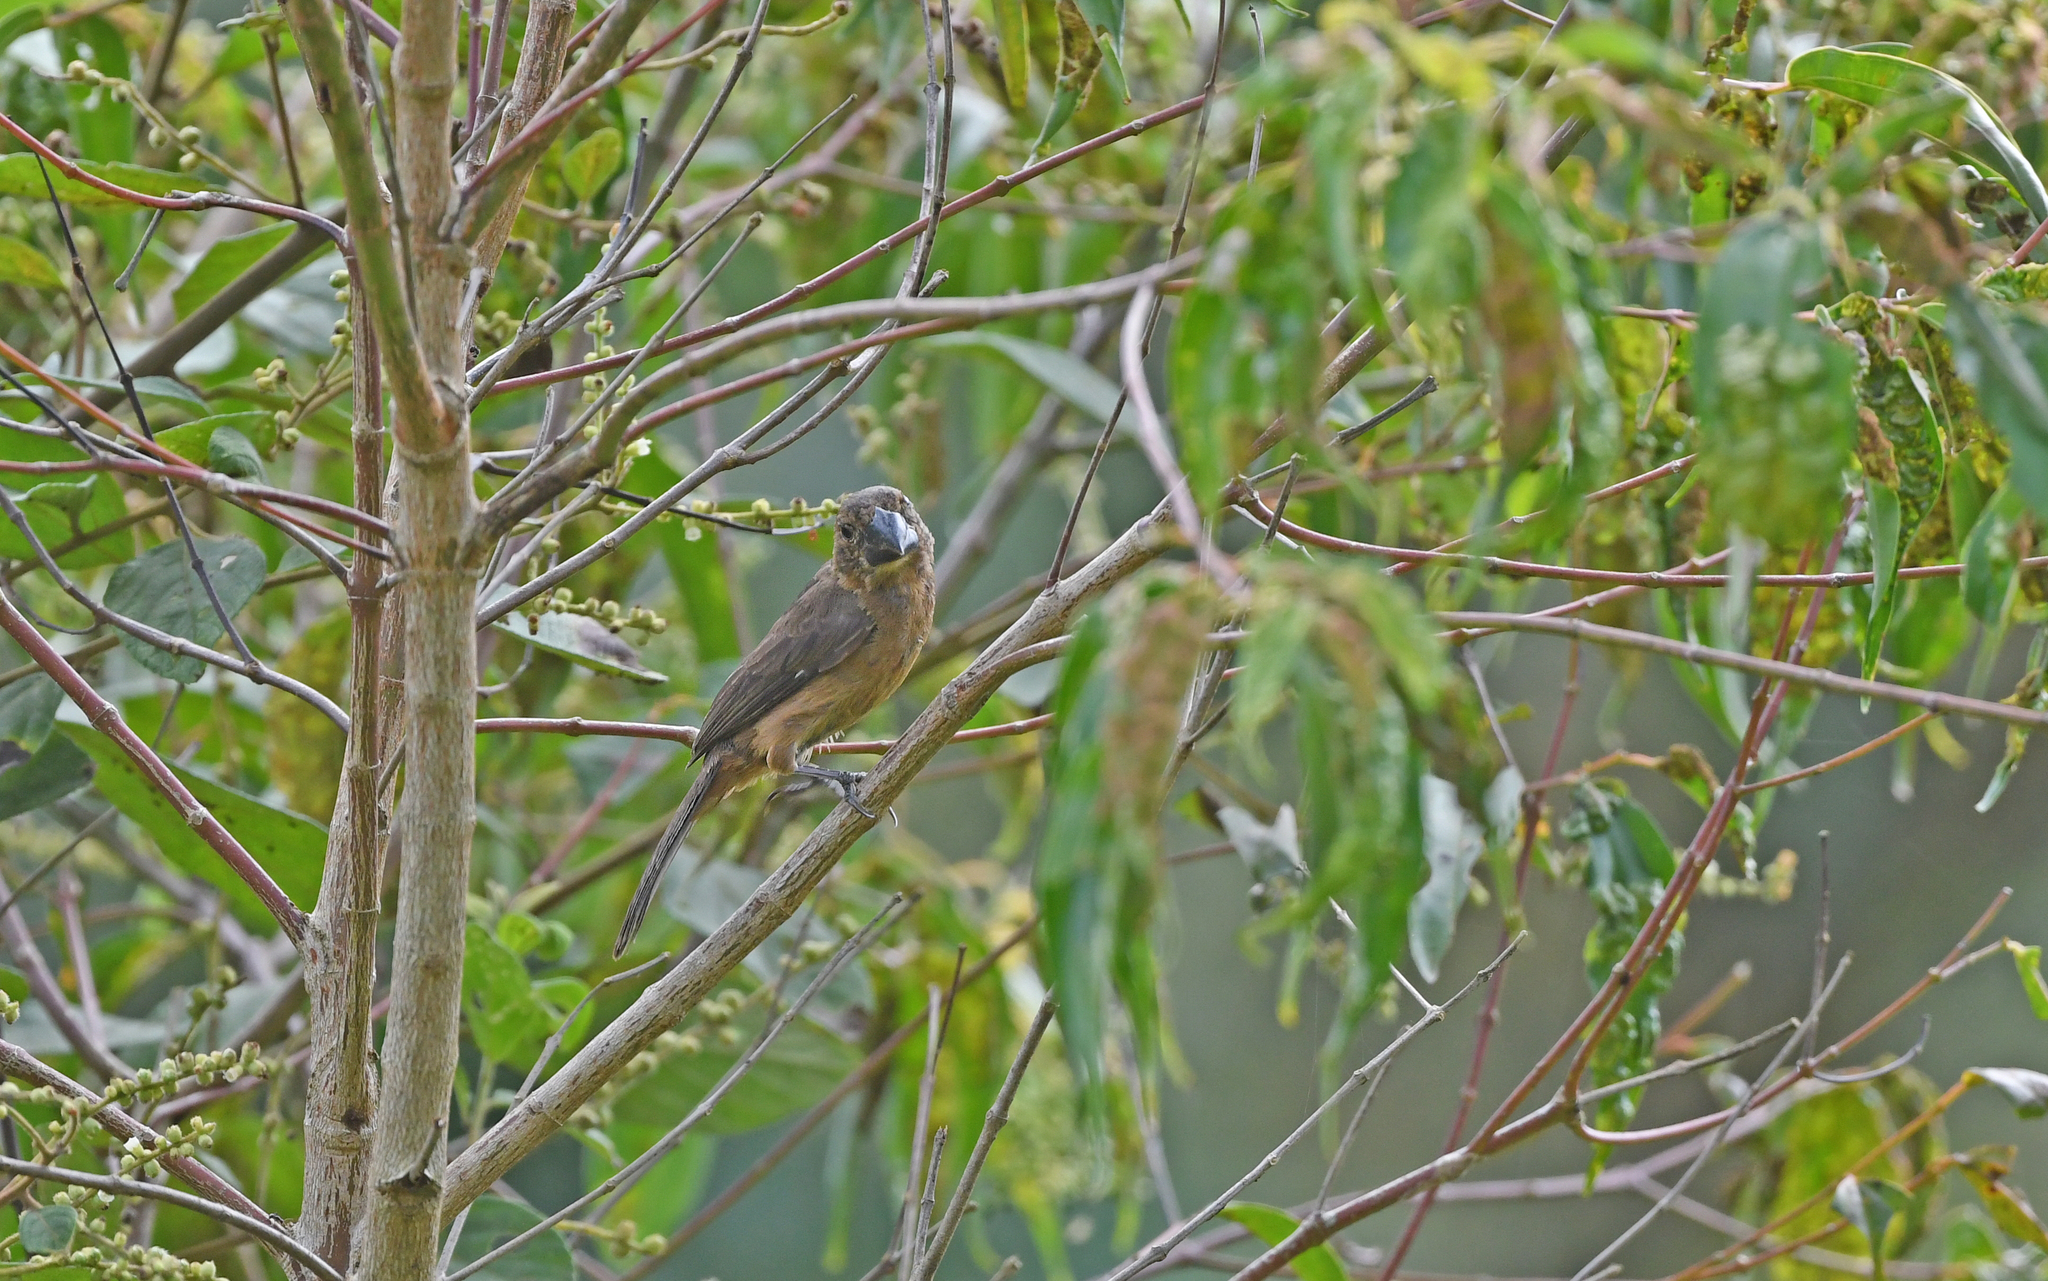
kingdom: Animalia
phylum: Chordata
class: Aves
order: Passeriformes
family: Thraupidae
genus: Sporophila
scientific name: Sporophila crassirostris
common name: Large-billed seed-finch
